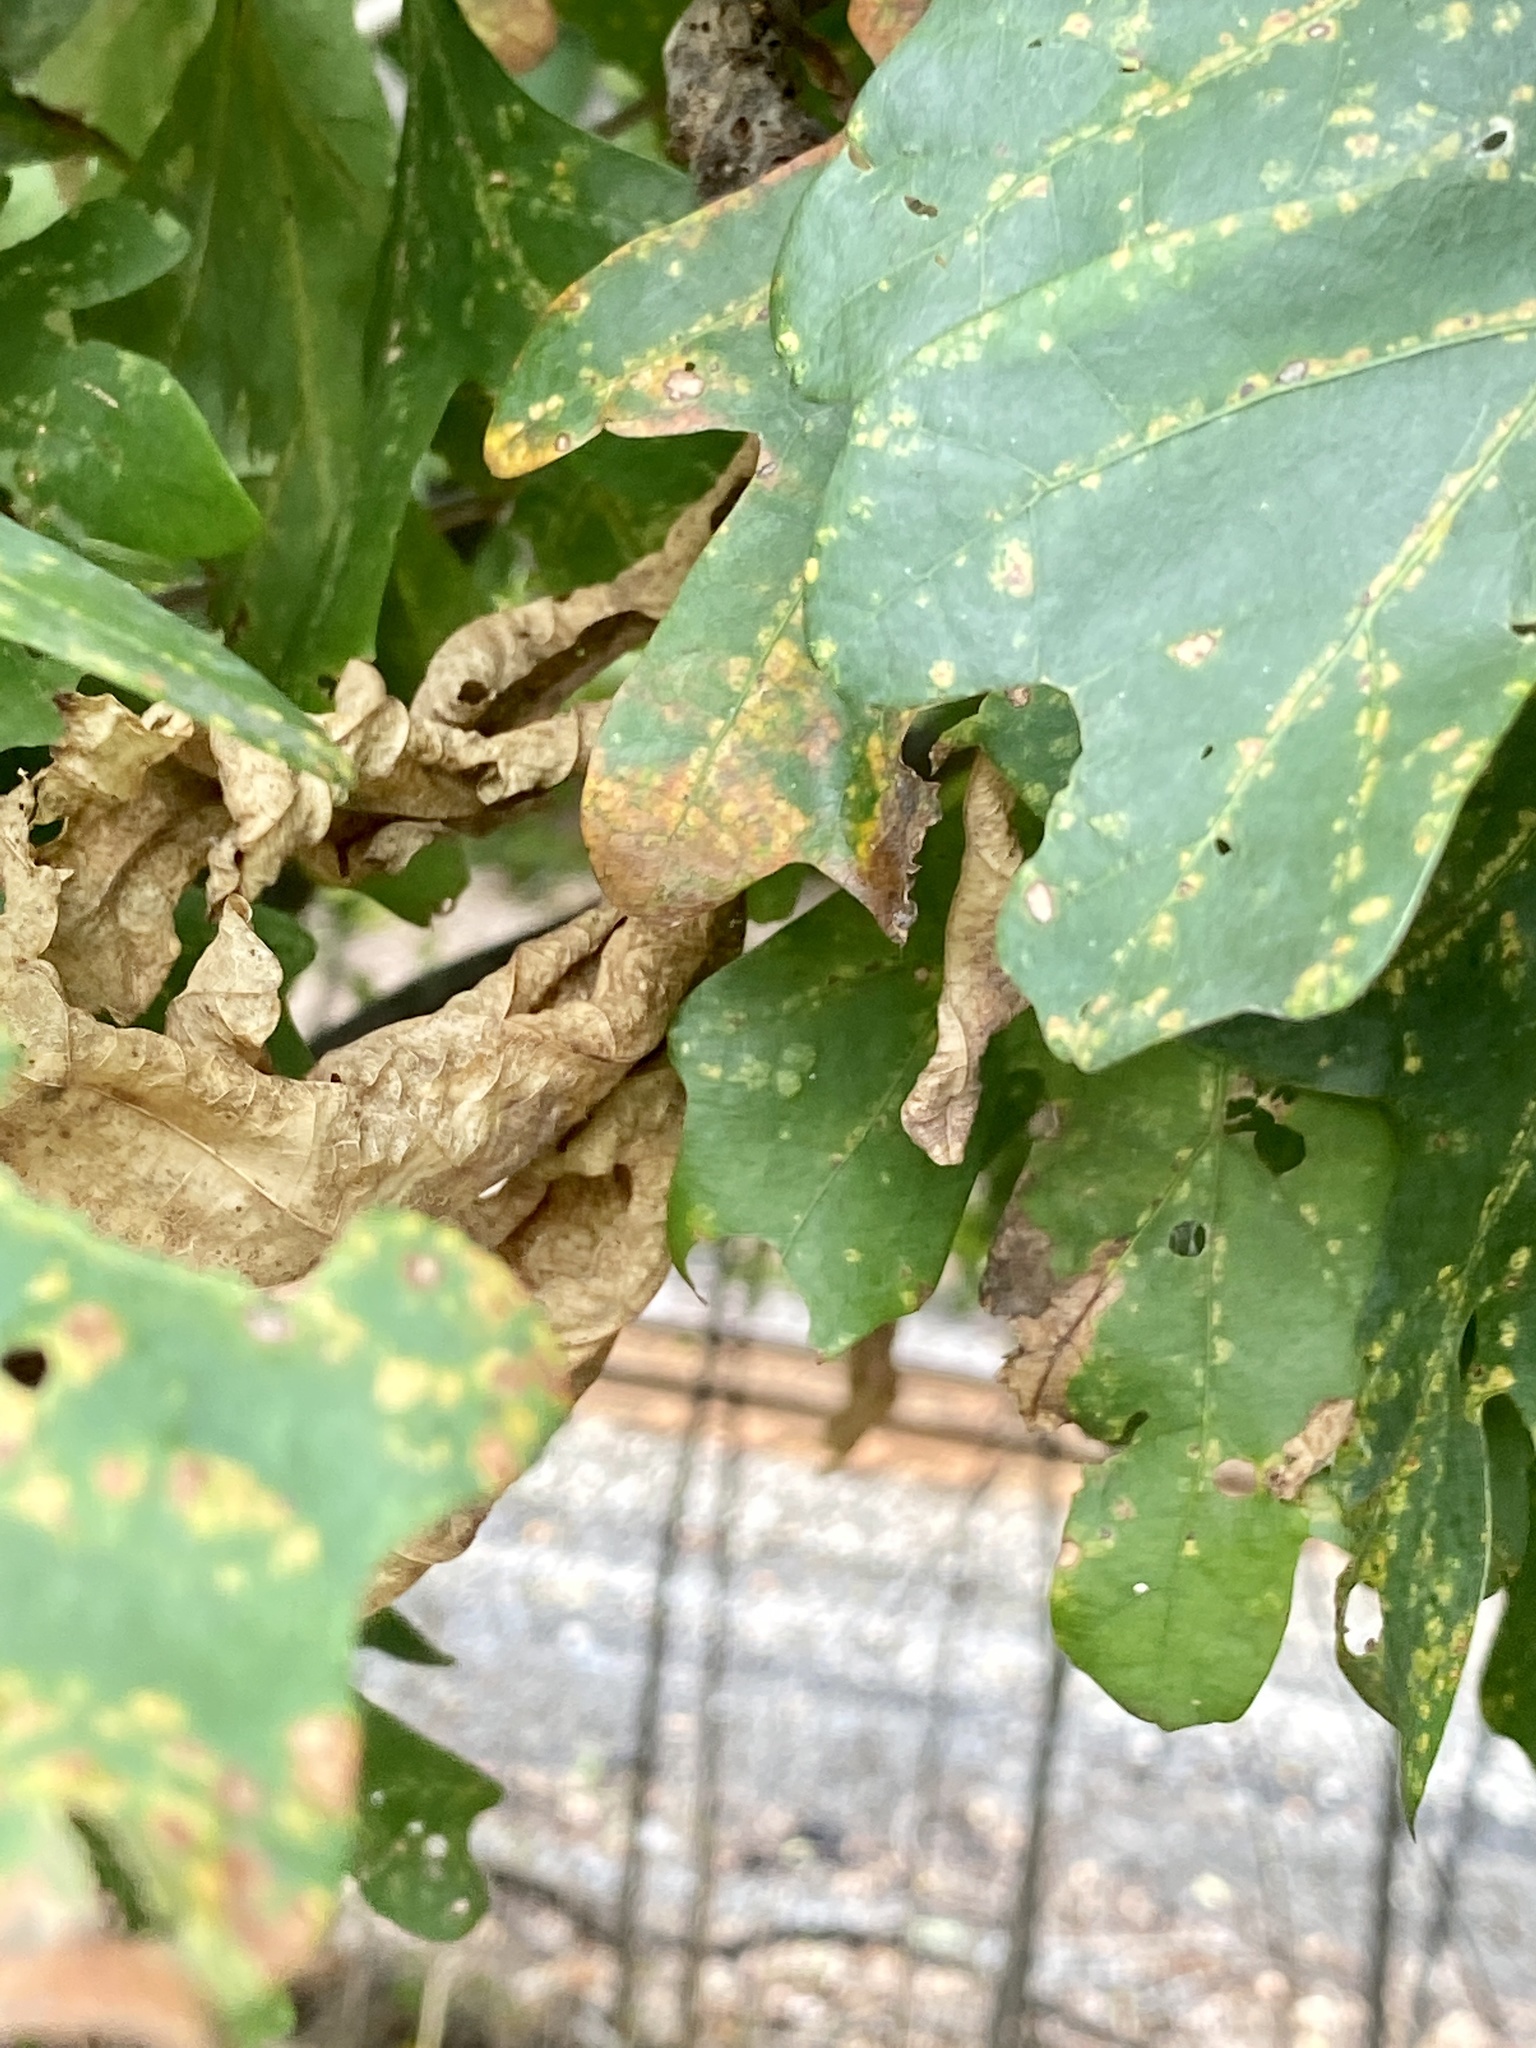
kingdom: Animalia
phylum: Arthropoda
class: Insecta
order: Hemiptera
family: Phylloxeridae
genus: Phylloxera
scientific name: Phylloxera querceti
